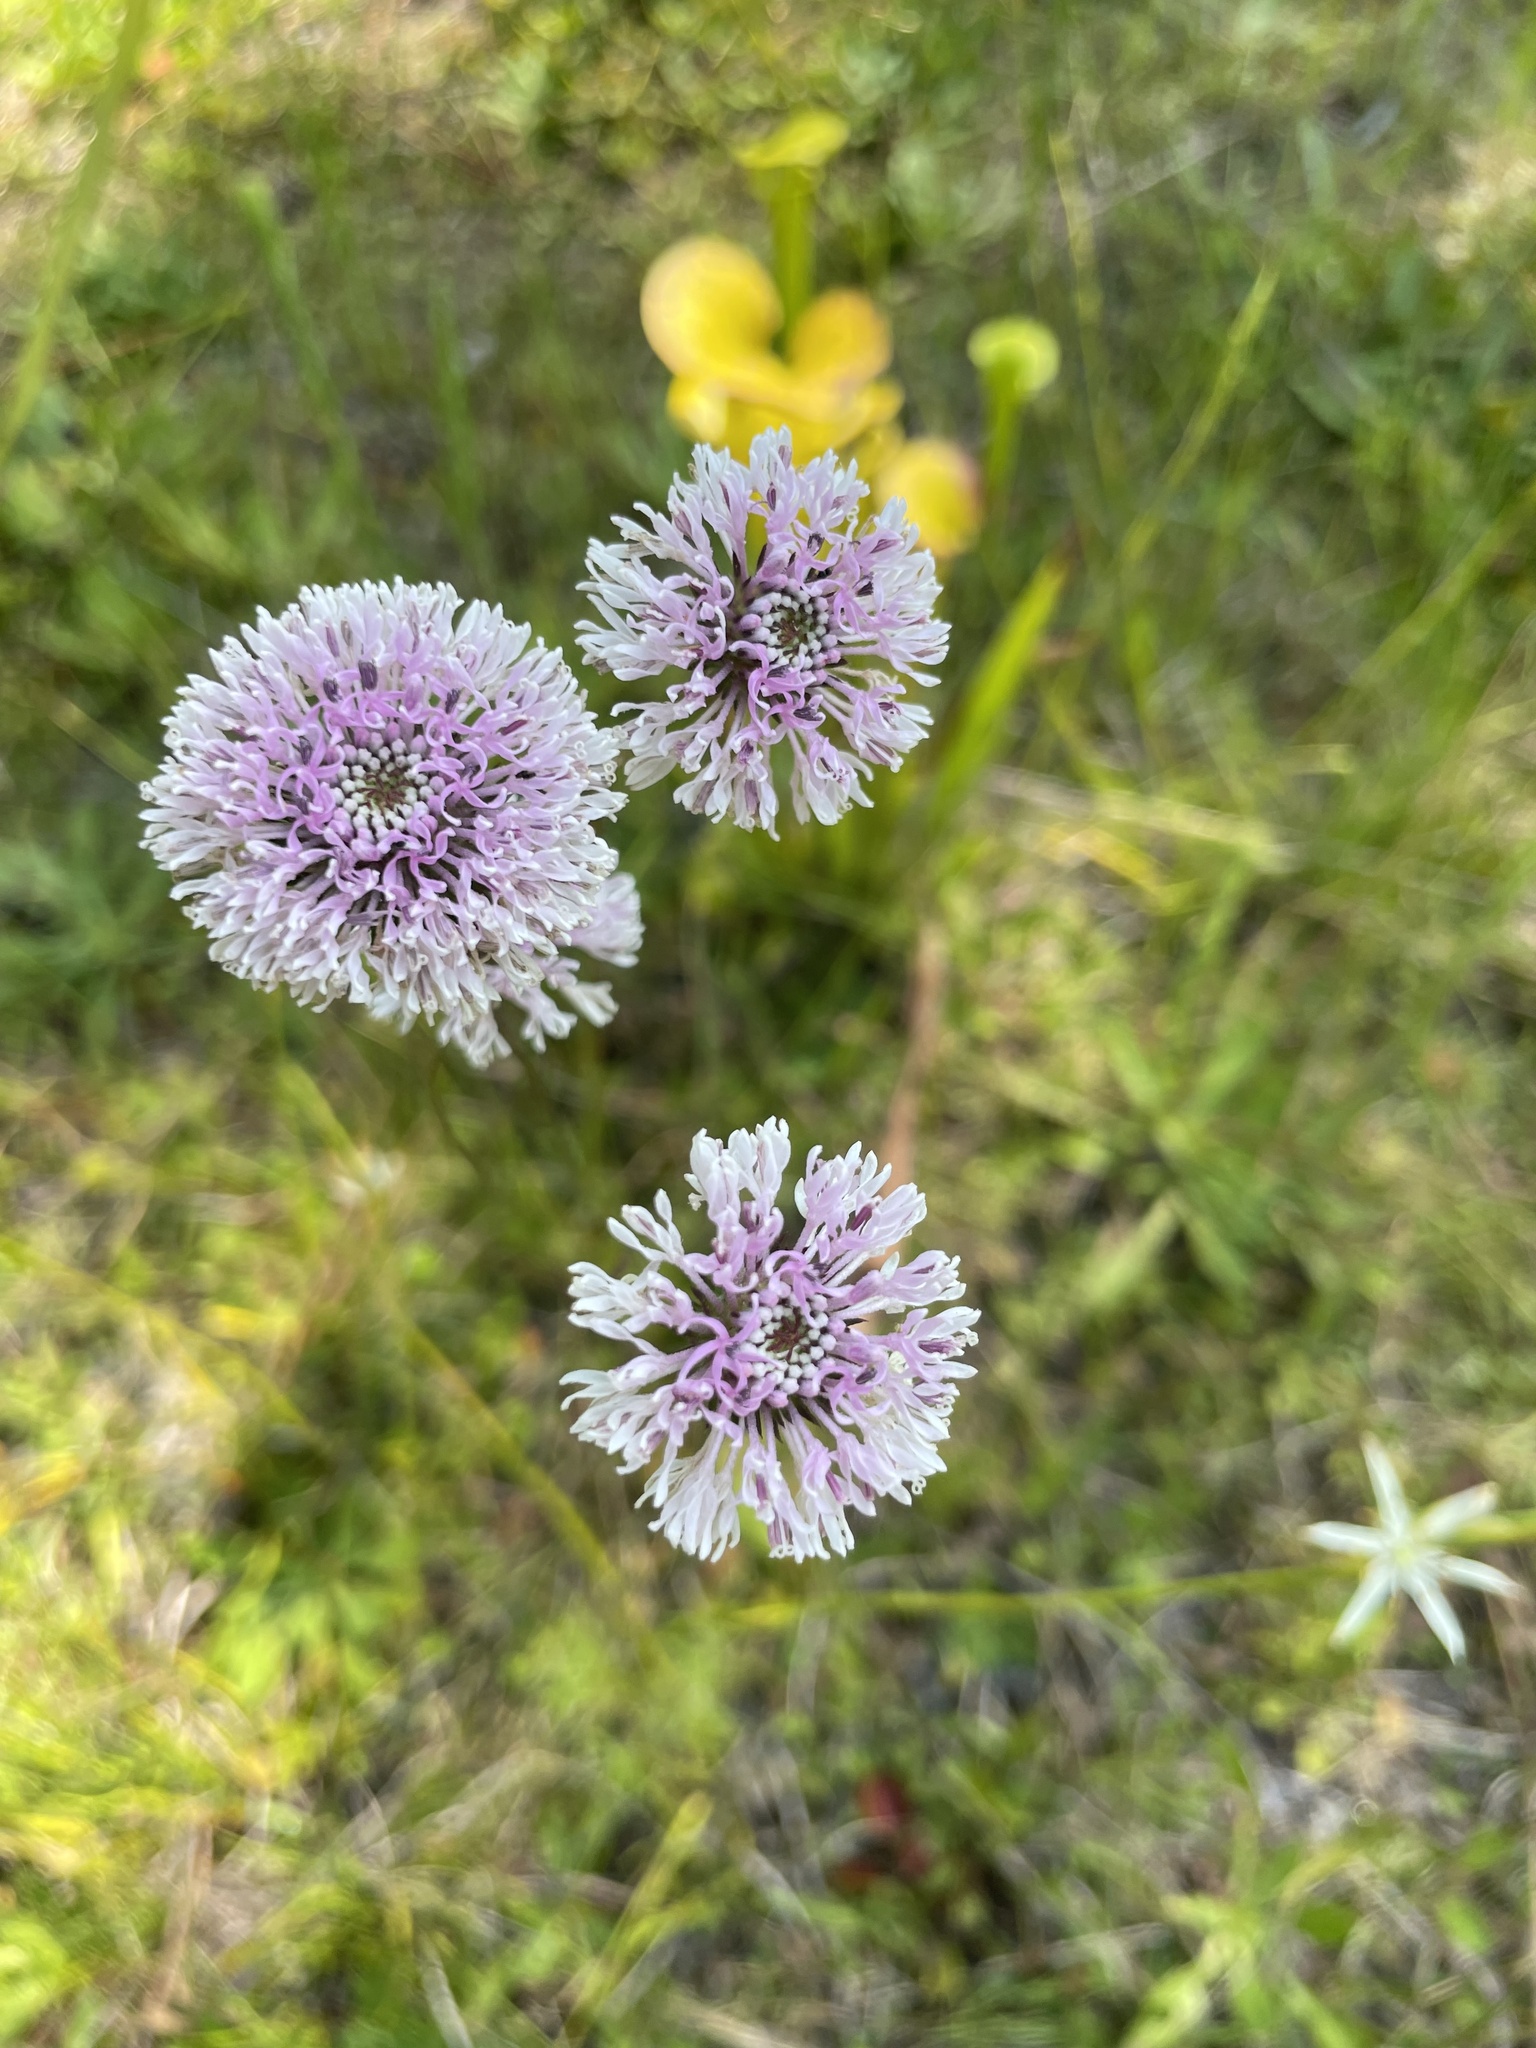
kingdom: Plantae
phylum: Tracheophyta
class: Magnoliopsida
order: Asterales
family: Asteraceae
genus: Marshallia
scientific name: Marshallia graminifolia
